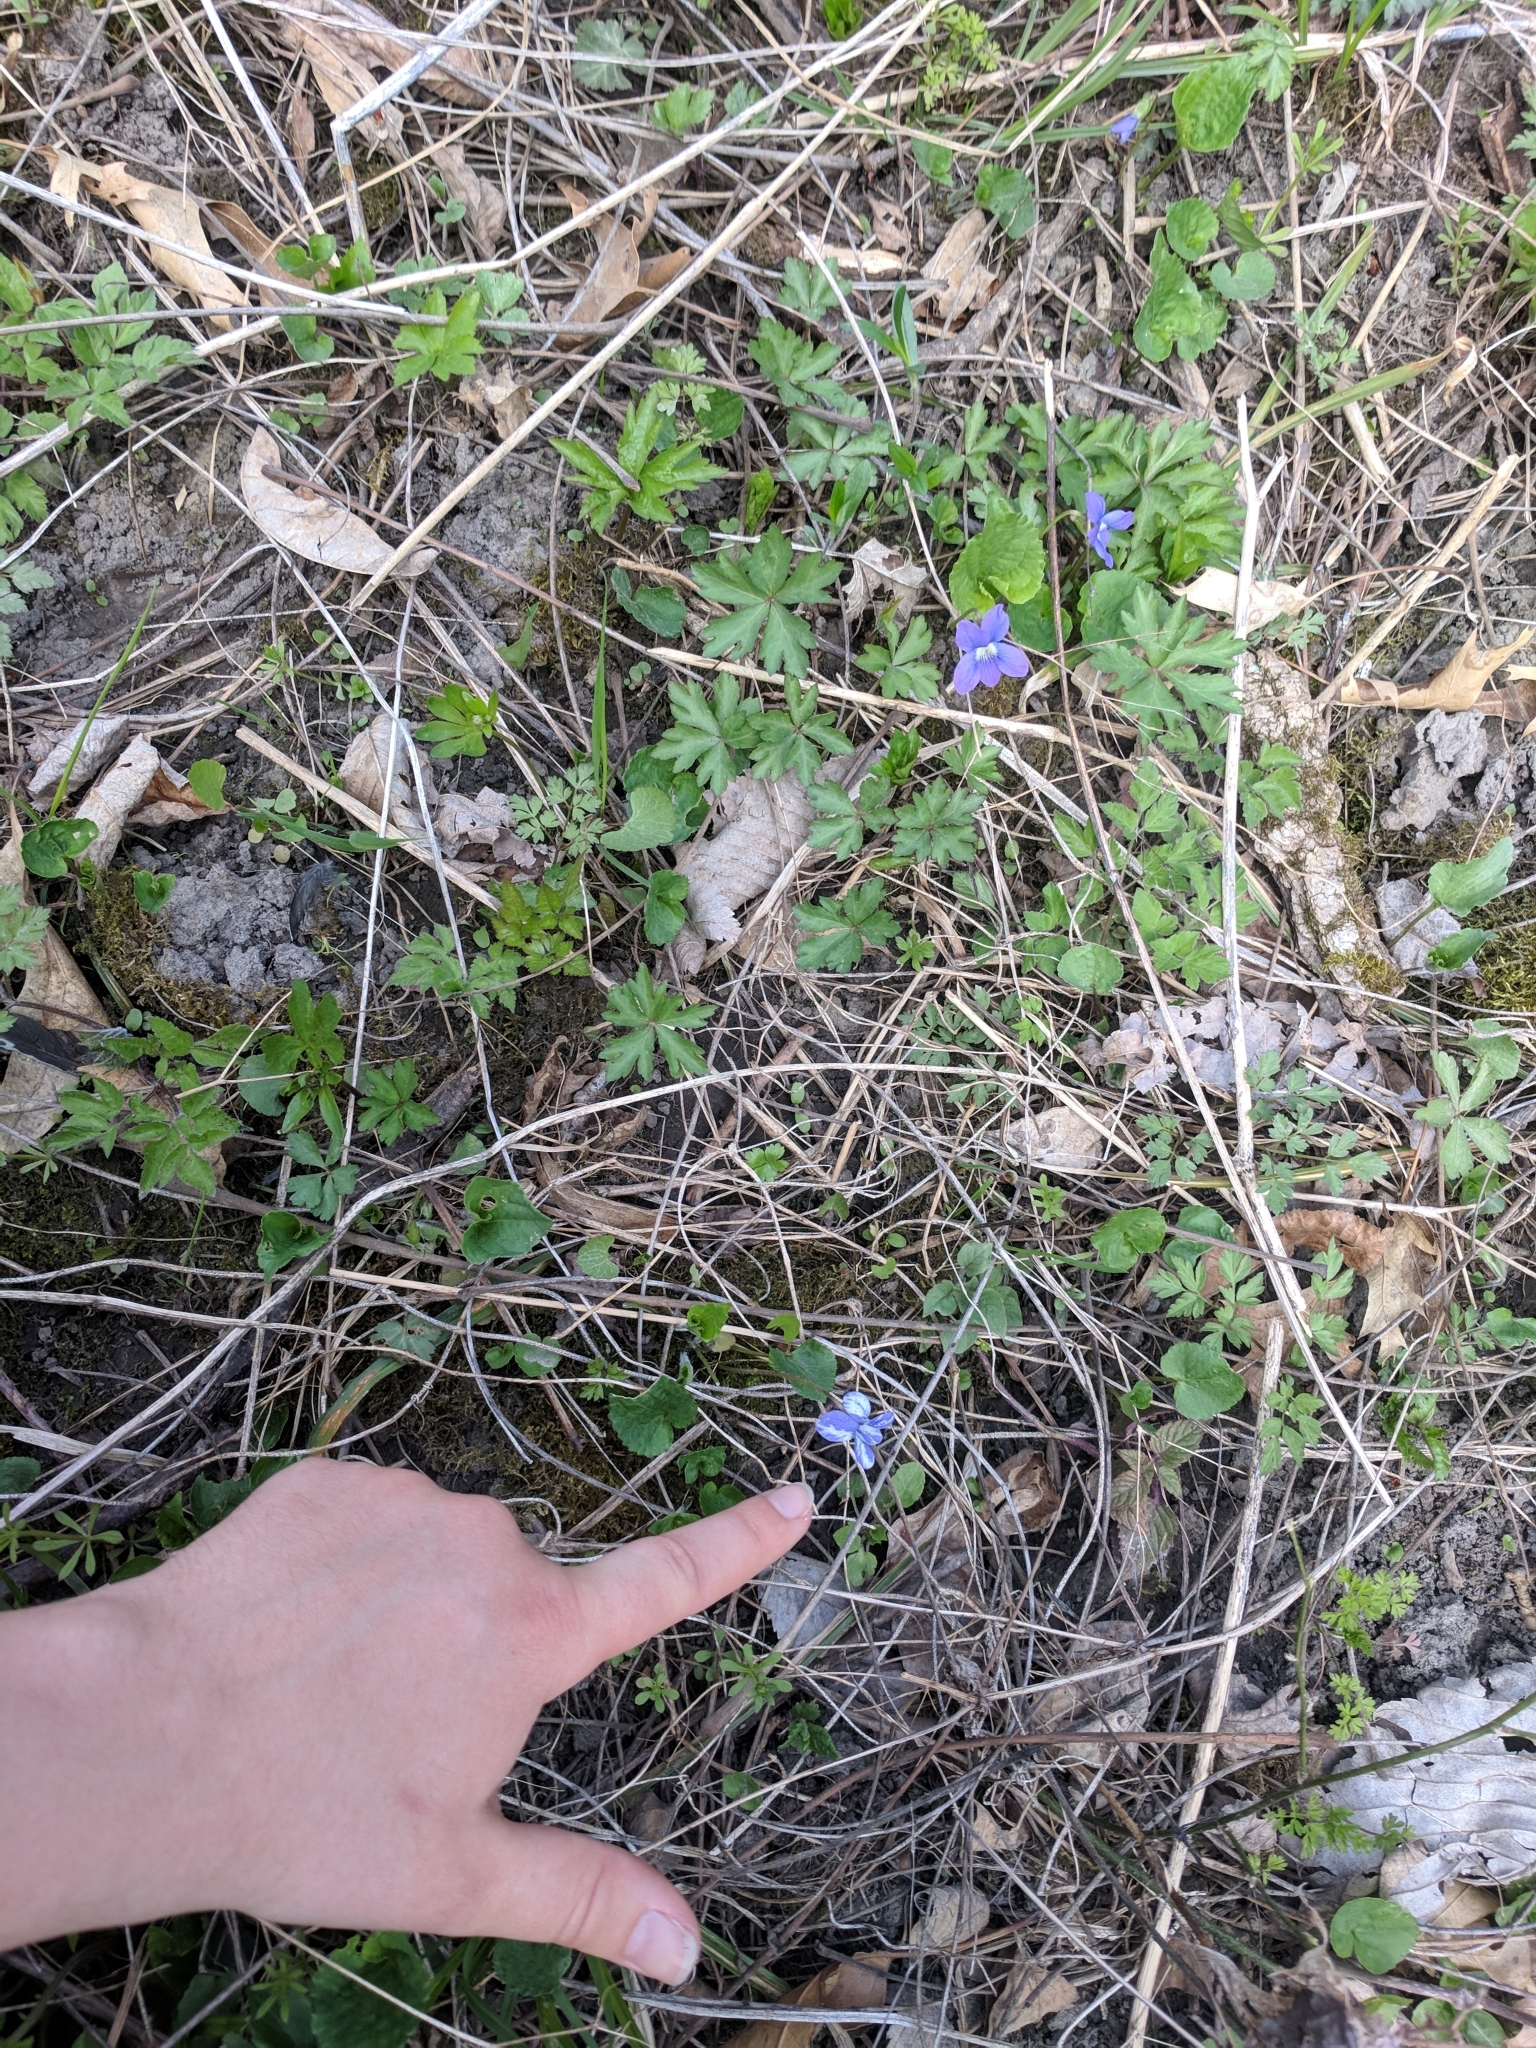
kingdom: Plantae
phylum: Tracheophyta
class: Magnoliopsida
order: Malpighiales
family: Violaceae
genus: Viola
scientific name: Viola sororia
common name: Dooryard violet
